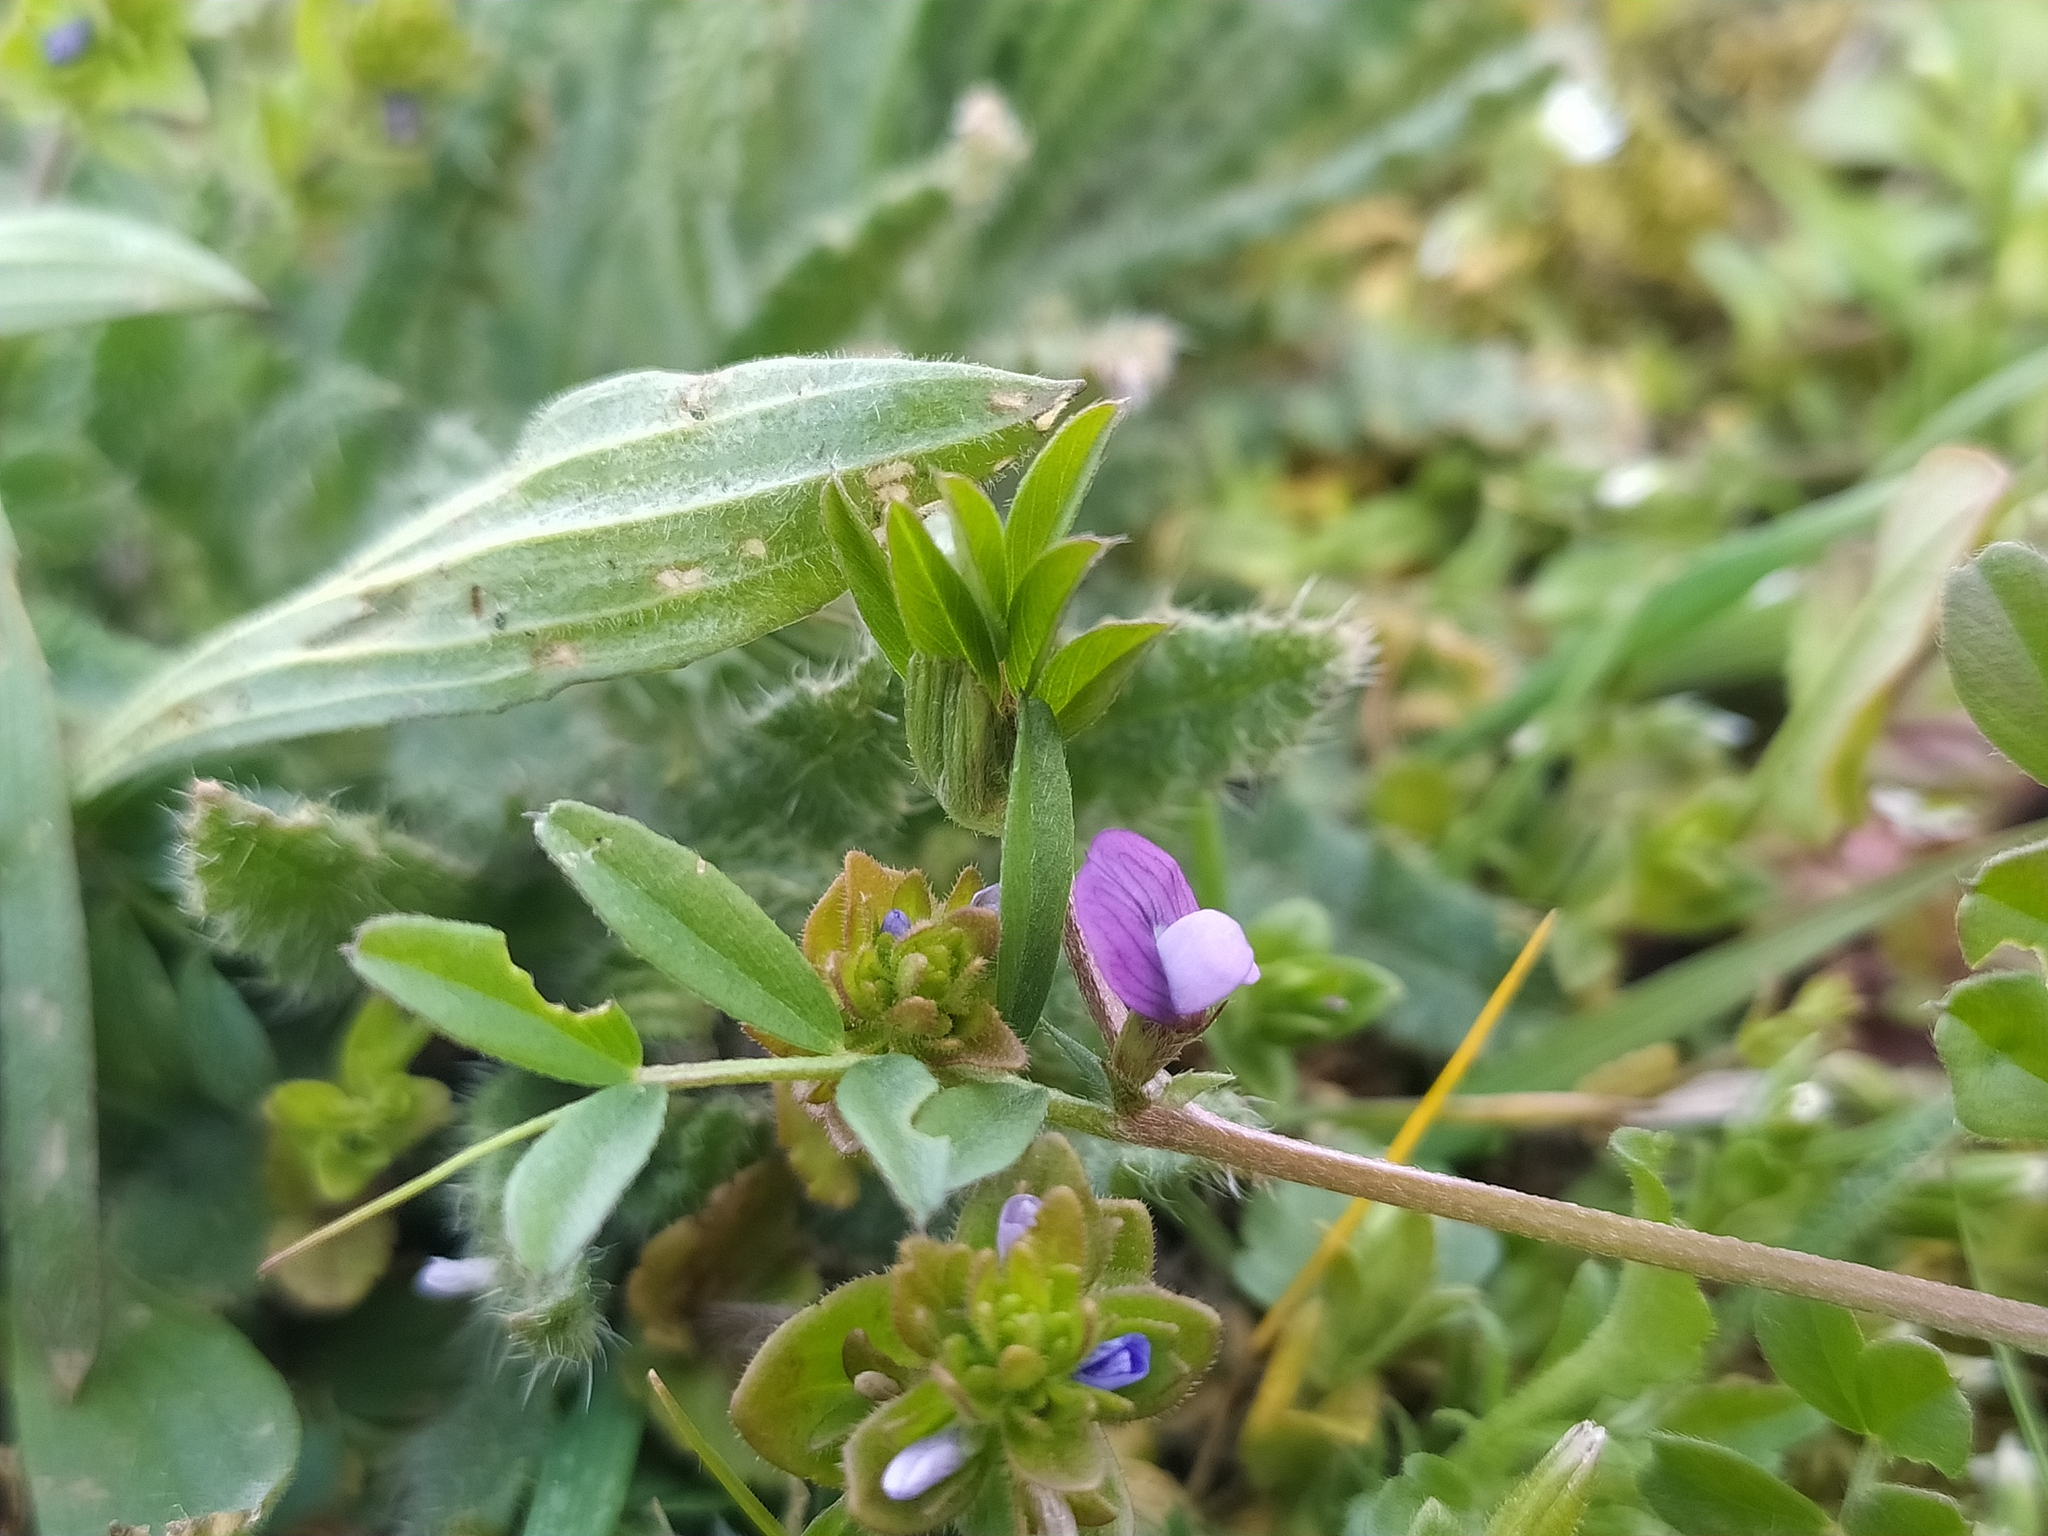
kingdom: Plantae
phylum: Tracheophyta
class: Magnoliopsida
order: Fabales
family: Fabaceae
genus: Vicia
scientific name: Vicia lathyroides
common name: Spring vetch
